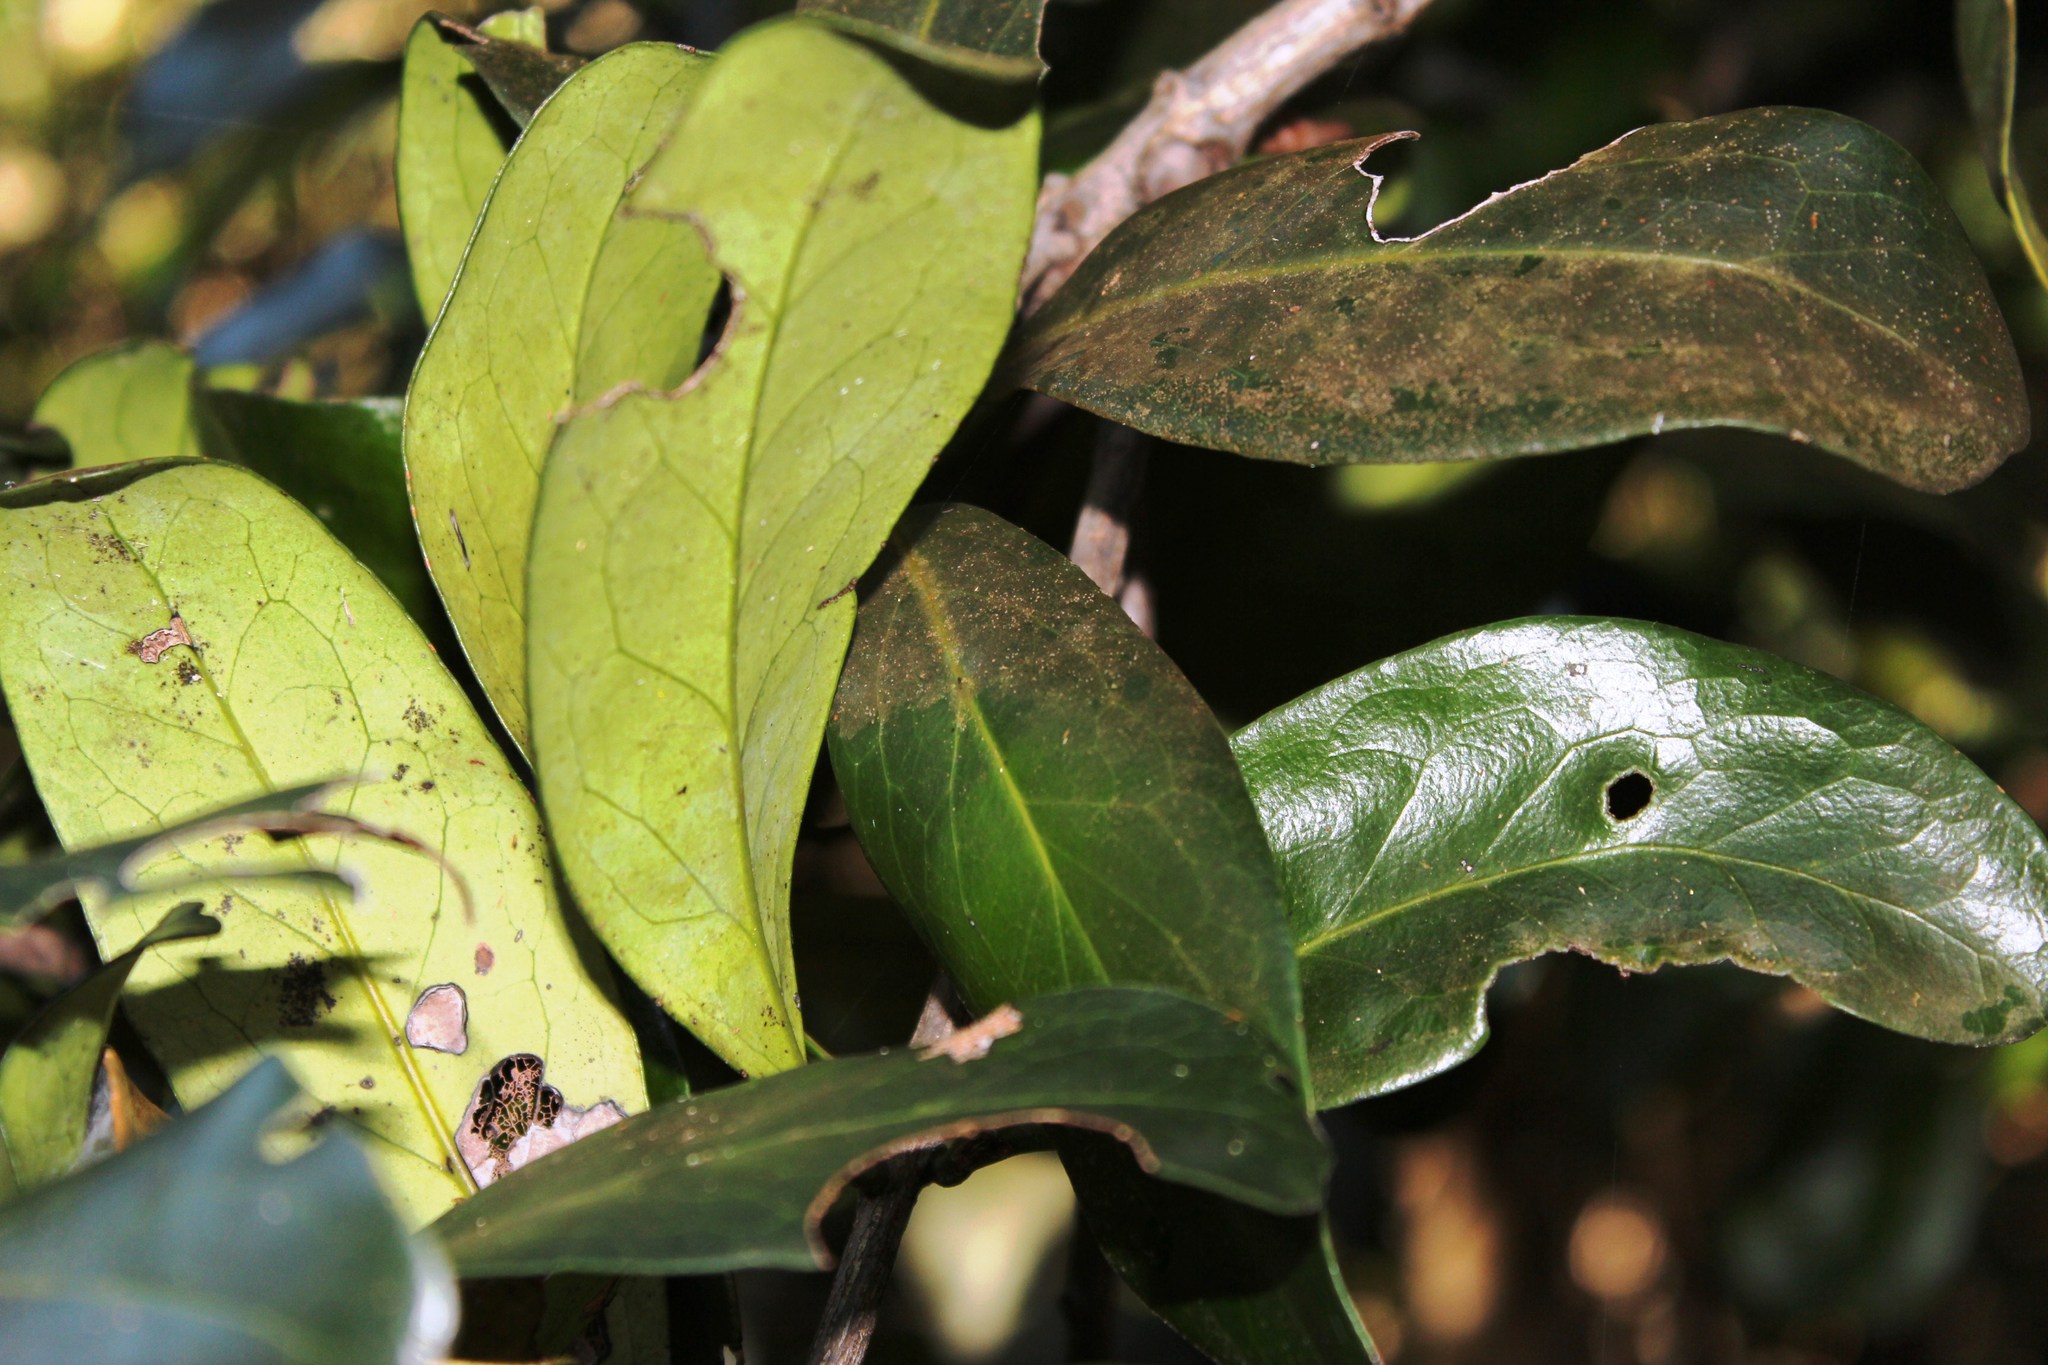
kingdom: Plantae
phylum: Tracheophyta
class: Magnoliopsida
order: Ericales
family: Ebenaceae
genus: Euclea
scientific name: Euclea racemosa
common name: Dune guarri
